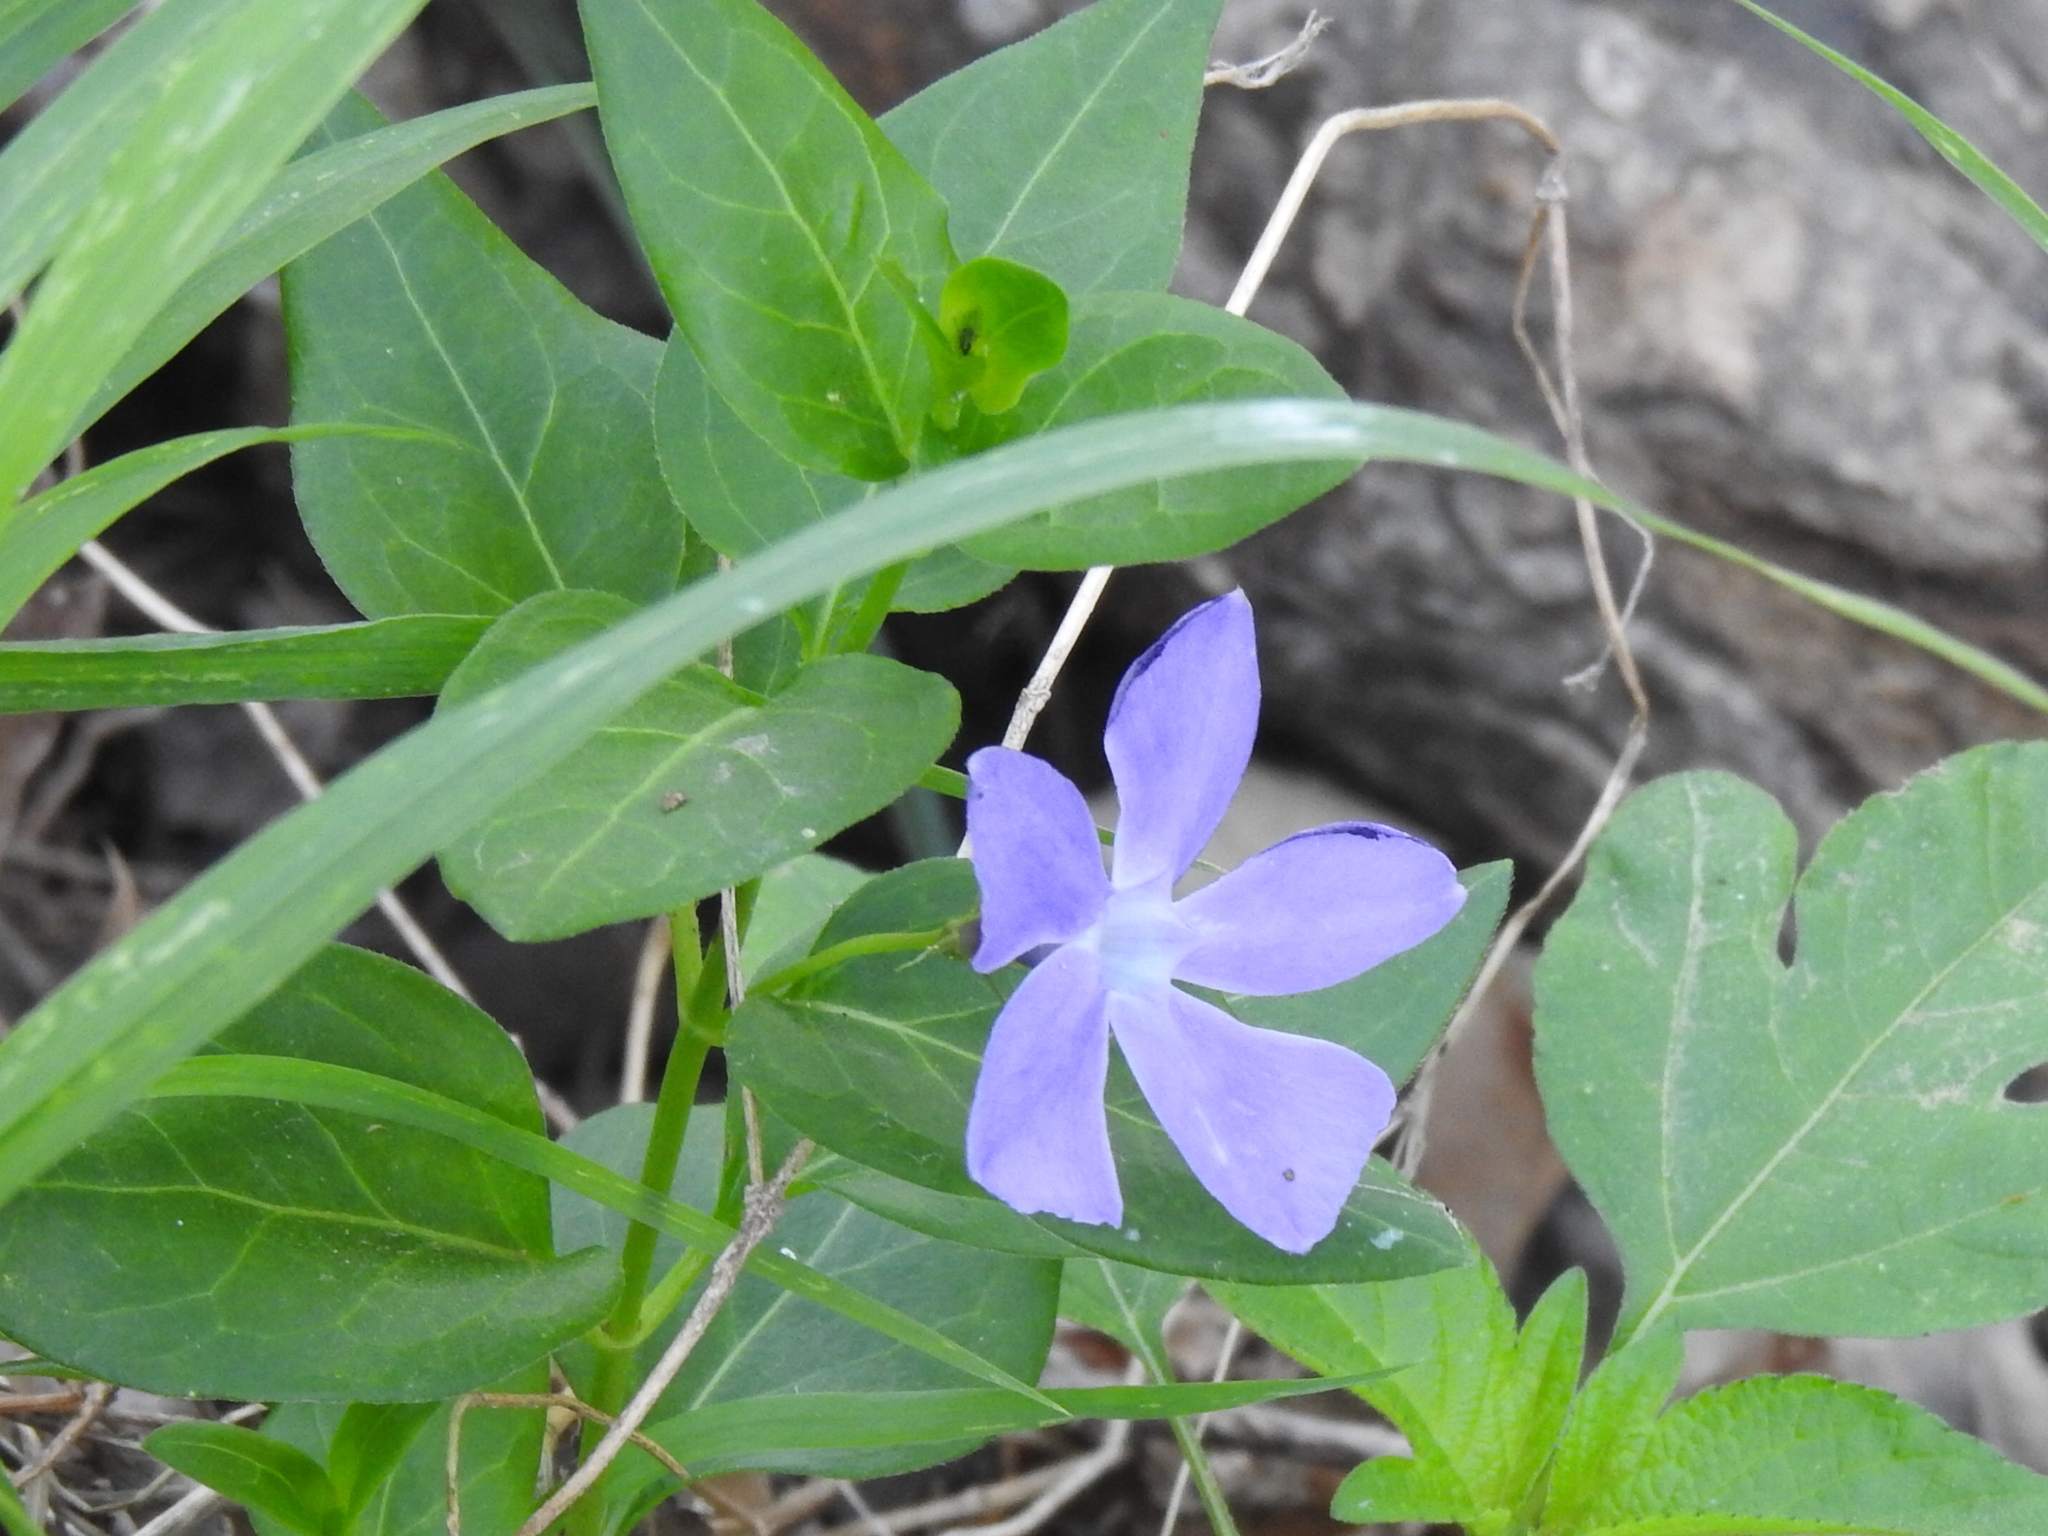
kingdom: Plantae
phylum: Tracheophyta
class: Magnoliopsida
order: Gentianales
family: Apocynaceae
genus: Vinca
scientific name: Vinca major
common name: Greater periwinkle
